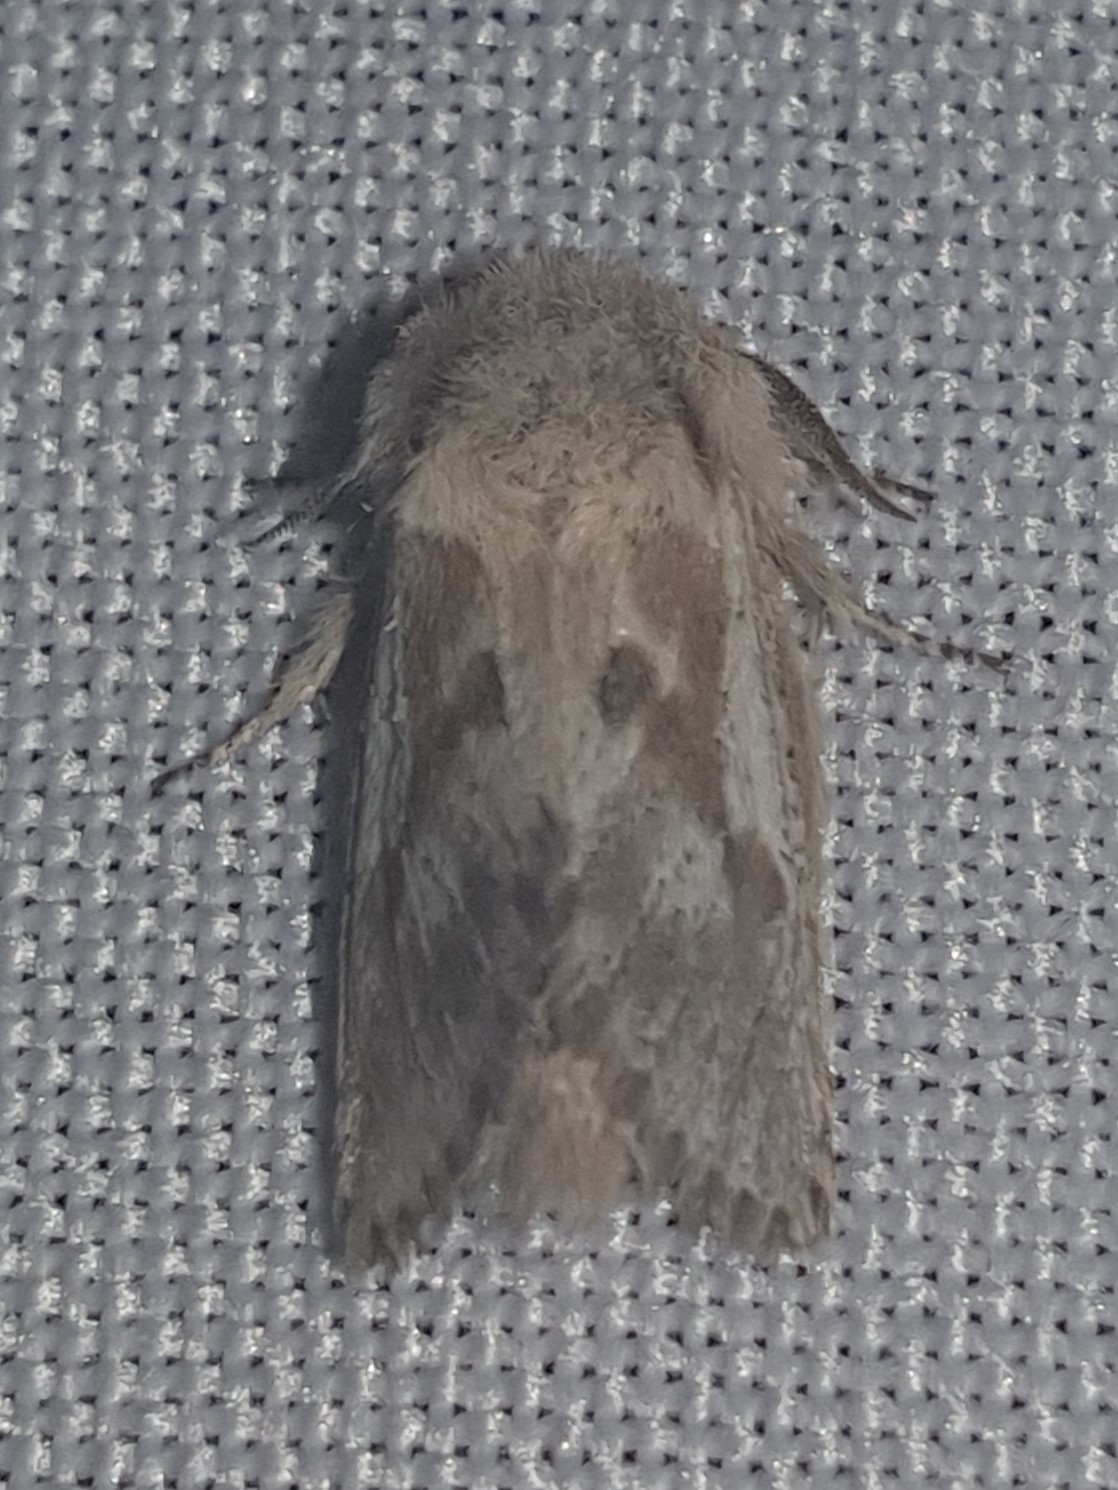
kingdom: Animalia
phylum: Arthropoda
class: Insecta
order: Lepidoptera
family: Cossidae
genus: Dyspessa
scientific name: Dyspessa ulula
